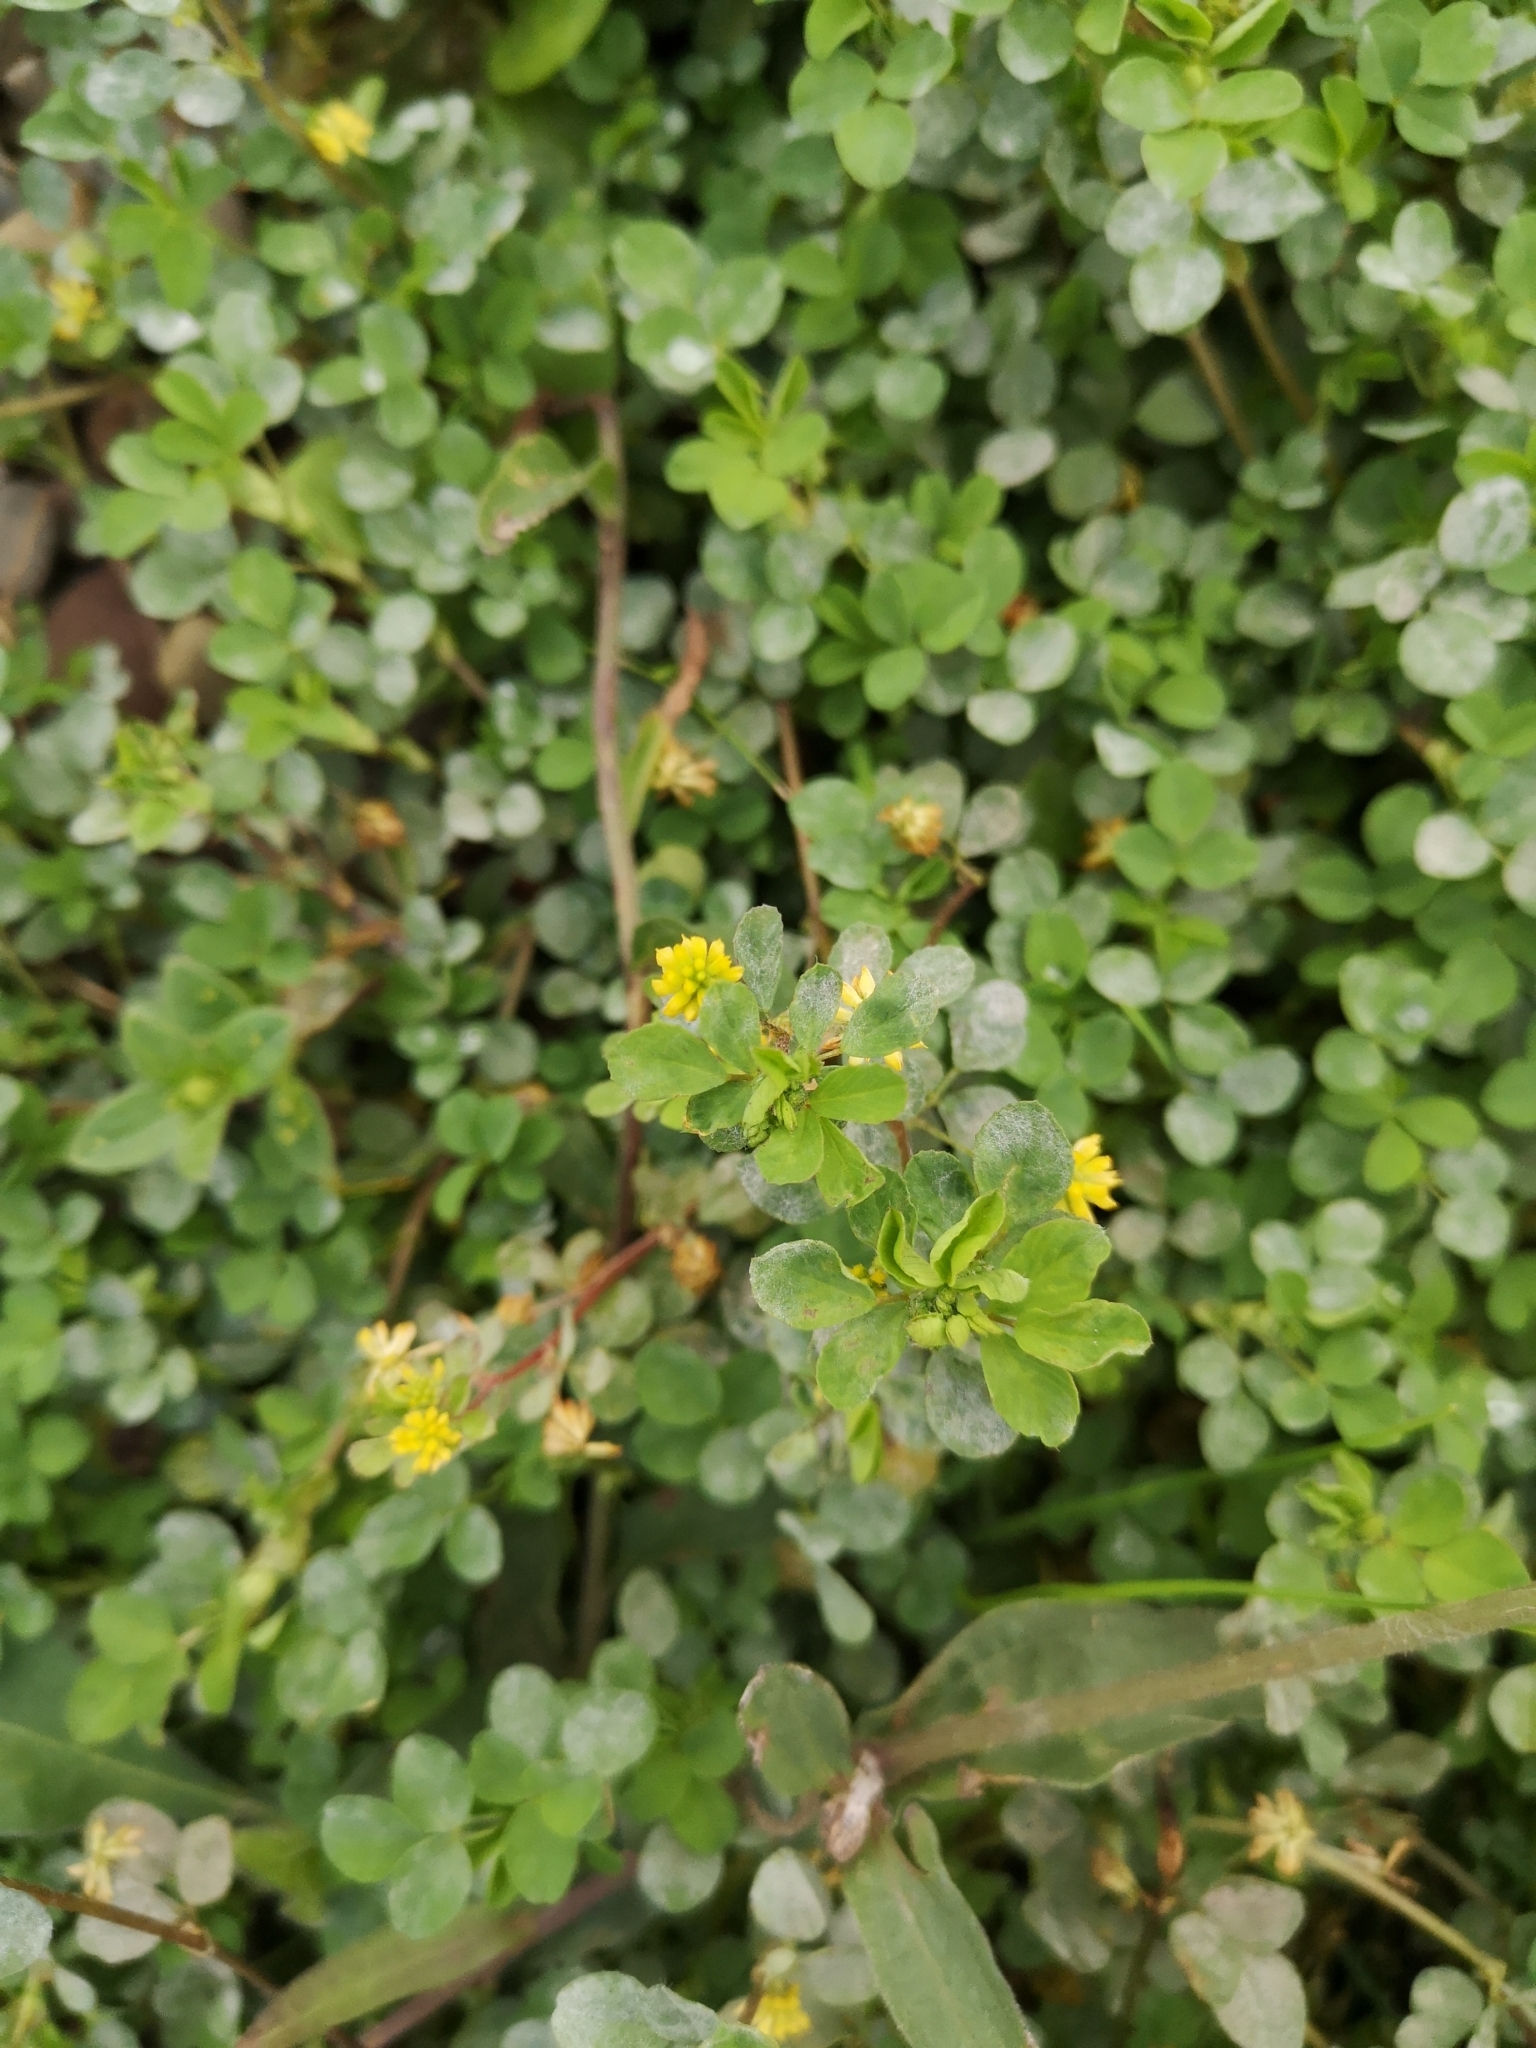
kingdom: Plantae
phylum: Tracheophyta
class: Magnoliopsida
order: Fabales
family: Fabaceae
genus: Trifolium
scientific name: Trifolium dubium
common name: Suckling clover
